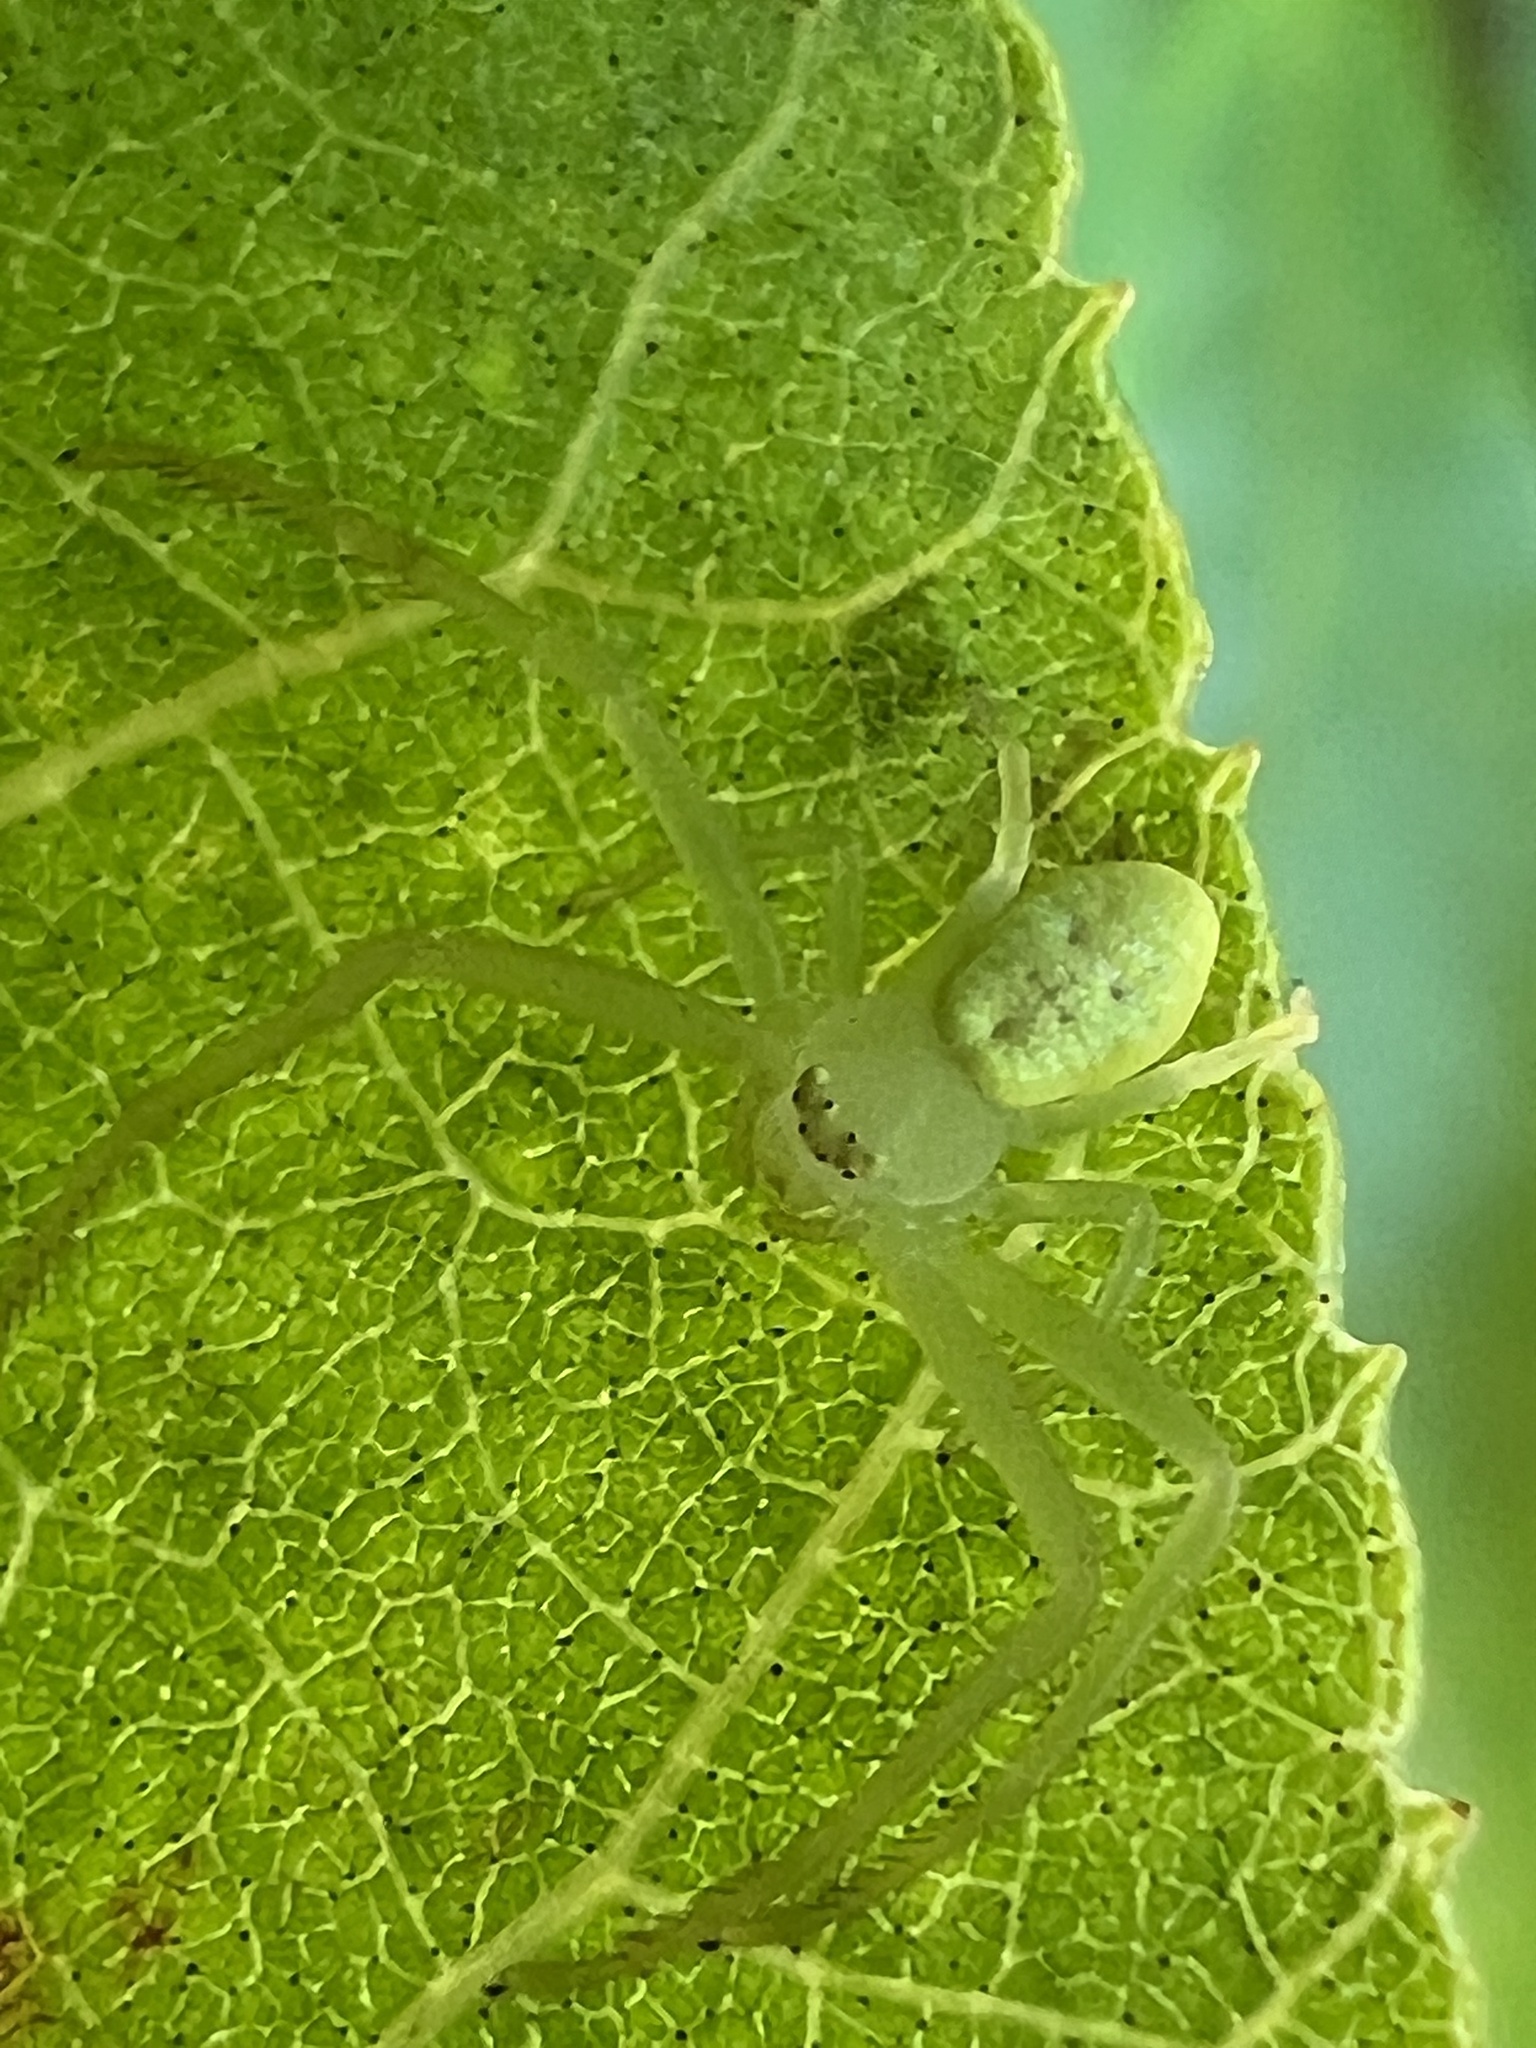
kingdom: Animalia
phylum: Arthropoda
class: Arachnida
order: Araneae
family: Thomisidae
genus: Misumessus
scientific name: Misumessus oblongus
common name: American green crab spider
